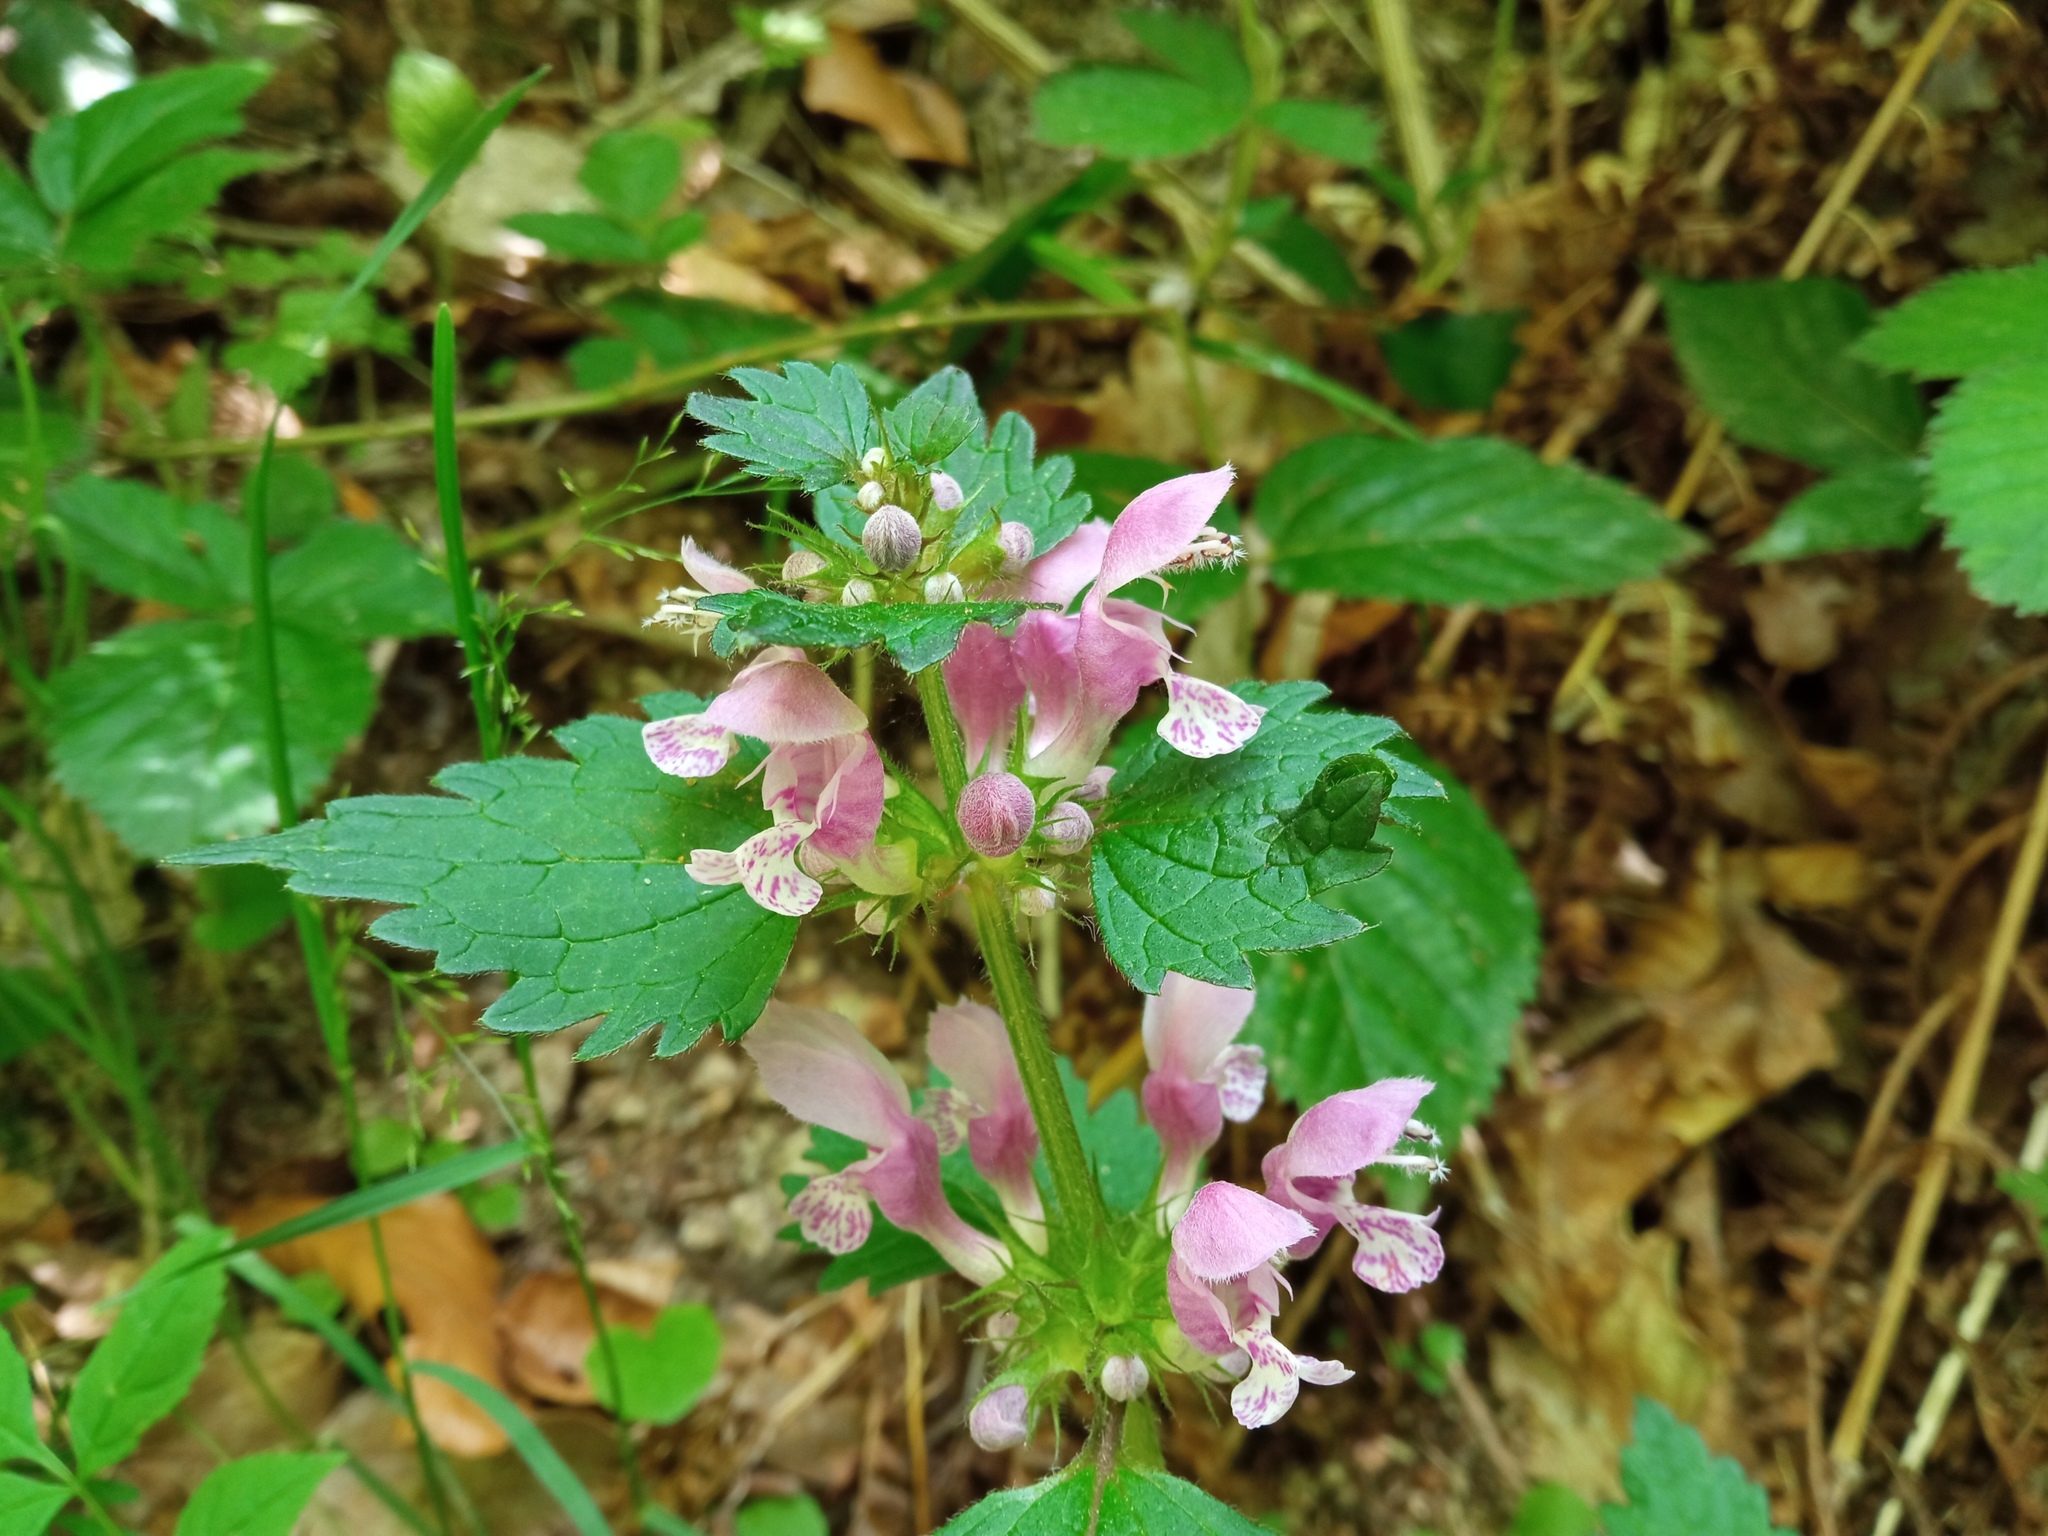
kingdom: Plantae
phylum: Tracheophyta
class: Magnoliopsida
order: Lamiales
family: Lamiaceae
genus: Lamium
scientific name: Lamium maculatum
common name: Spotted dead-nettle
